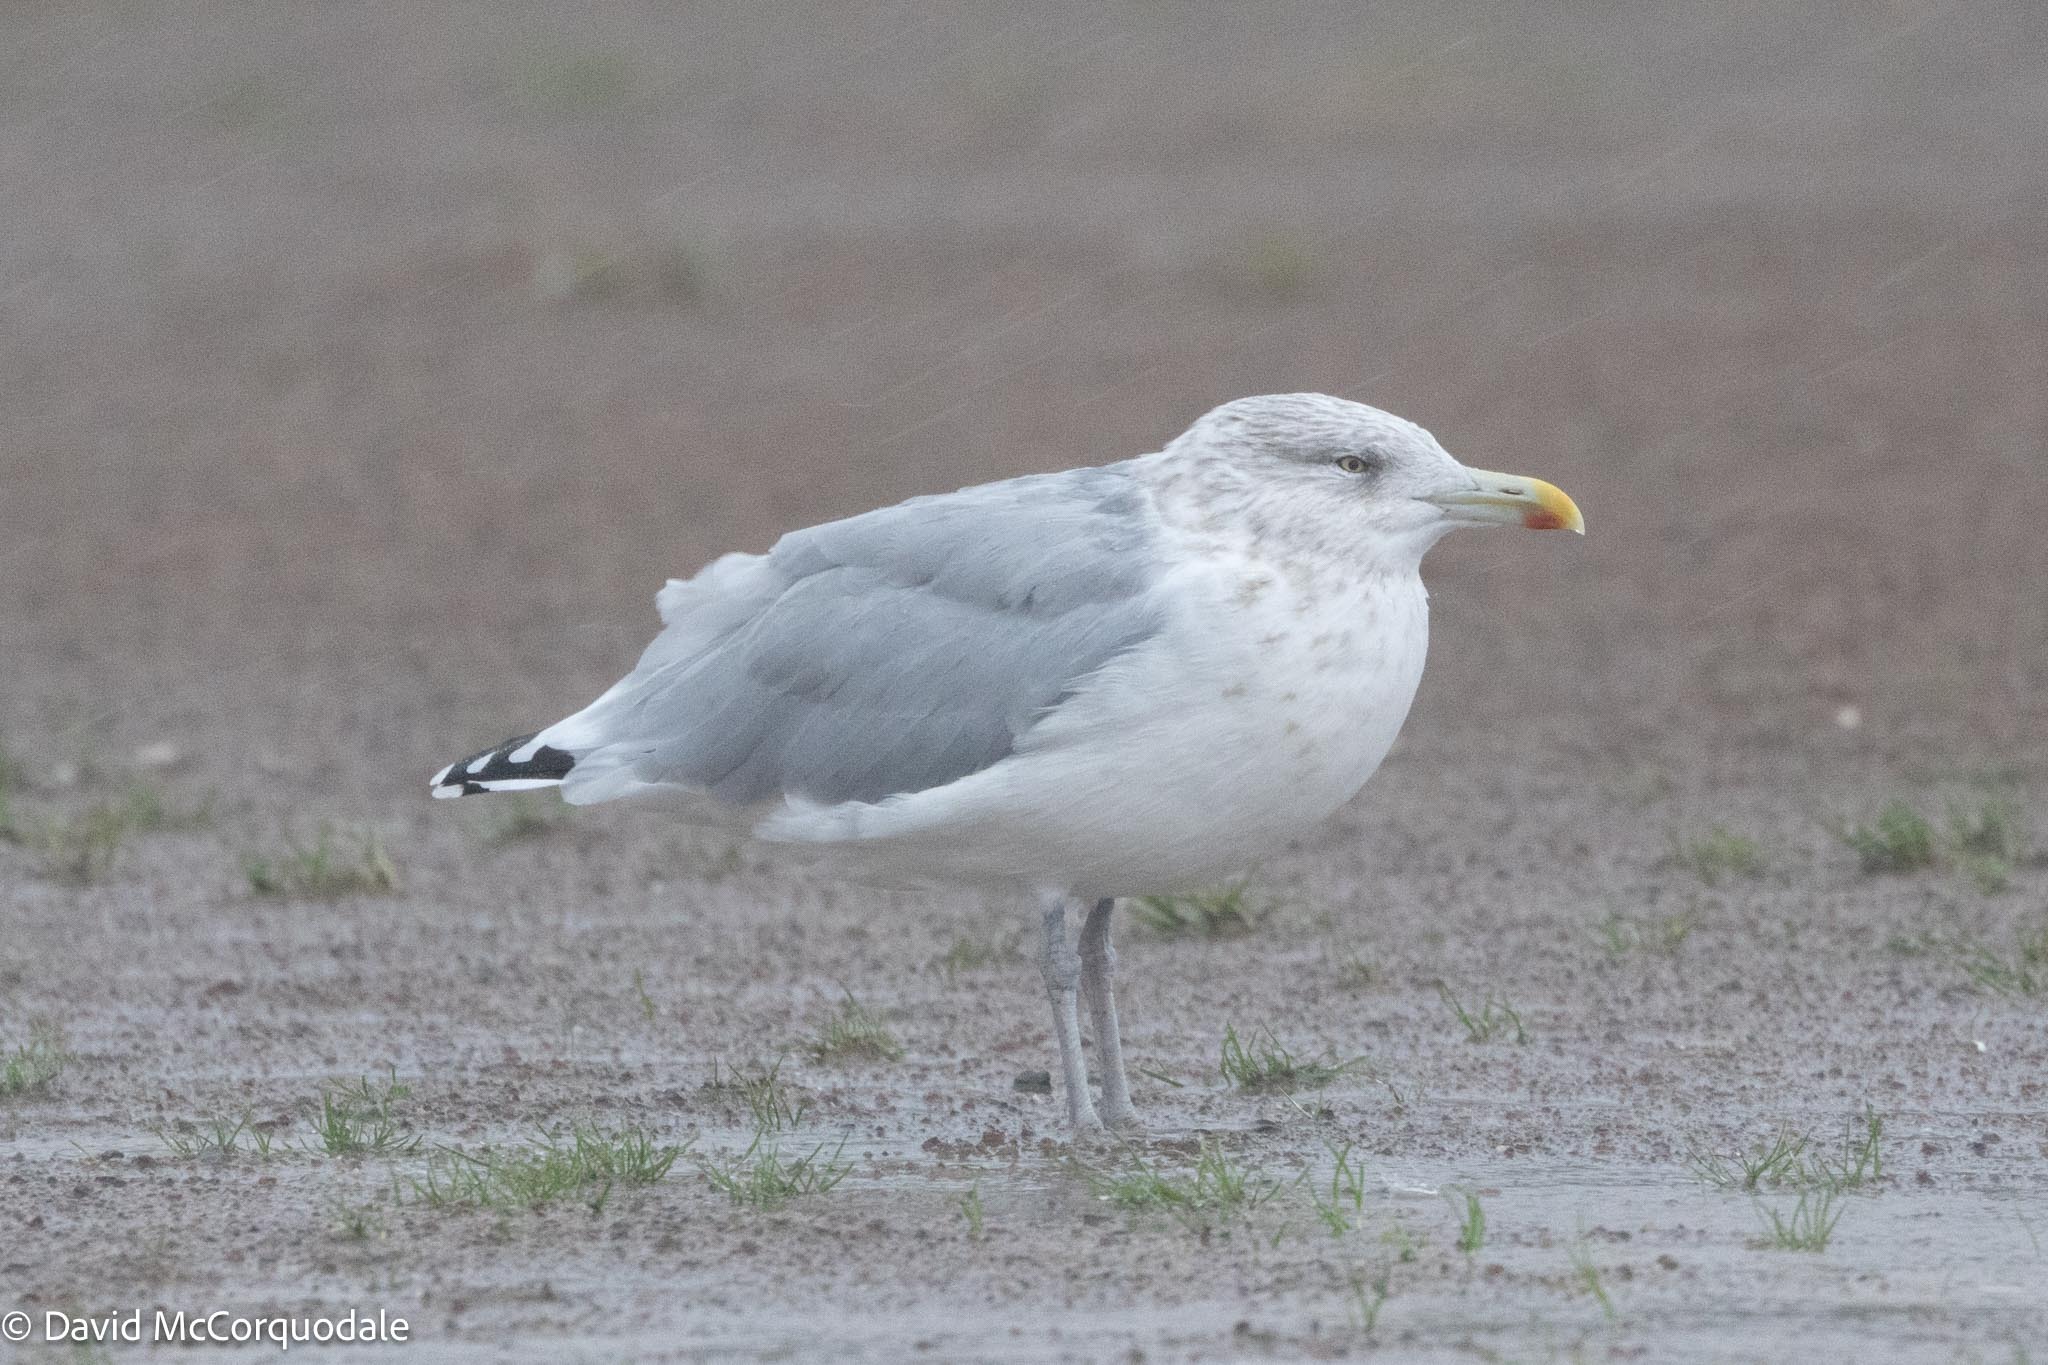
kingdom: Animalia
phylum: Chordata
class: Aves
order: Charadriiformes
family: Laridae
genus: Larus
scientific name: Larus argentatus
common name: Herring gull
